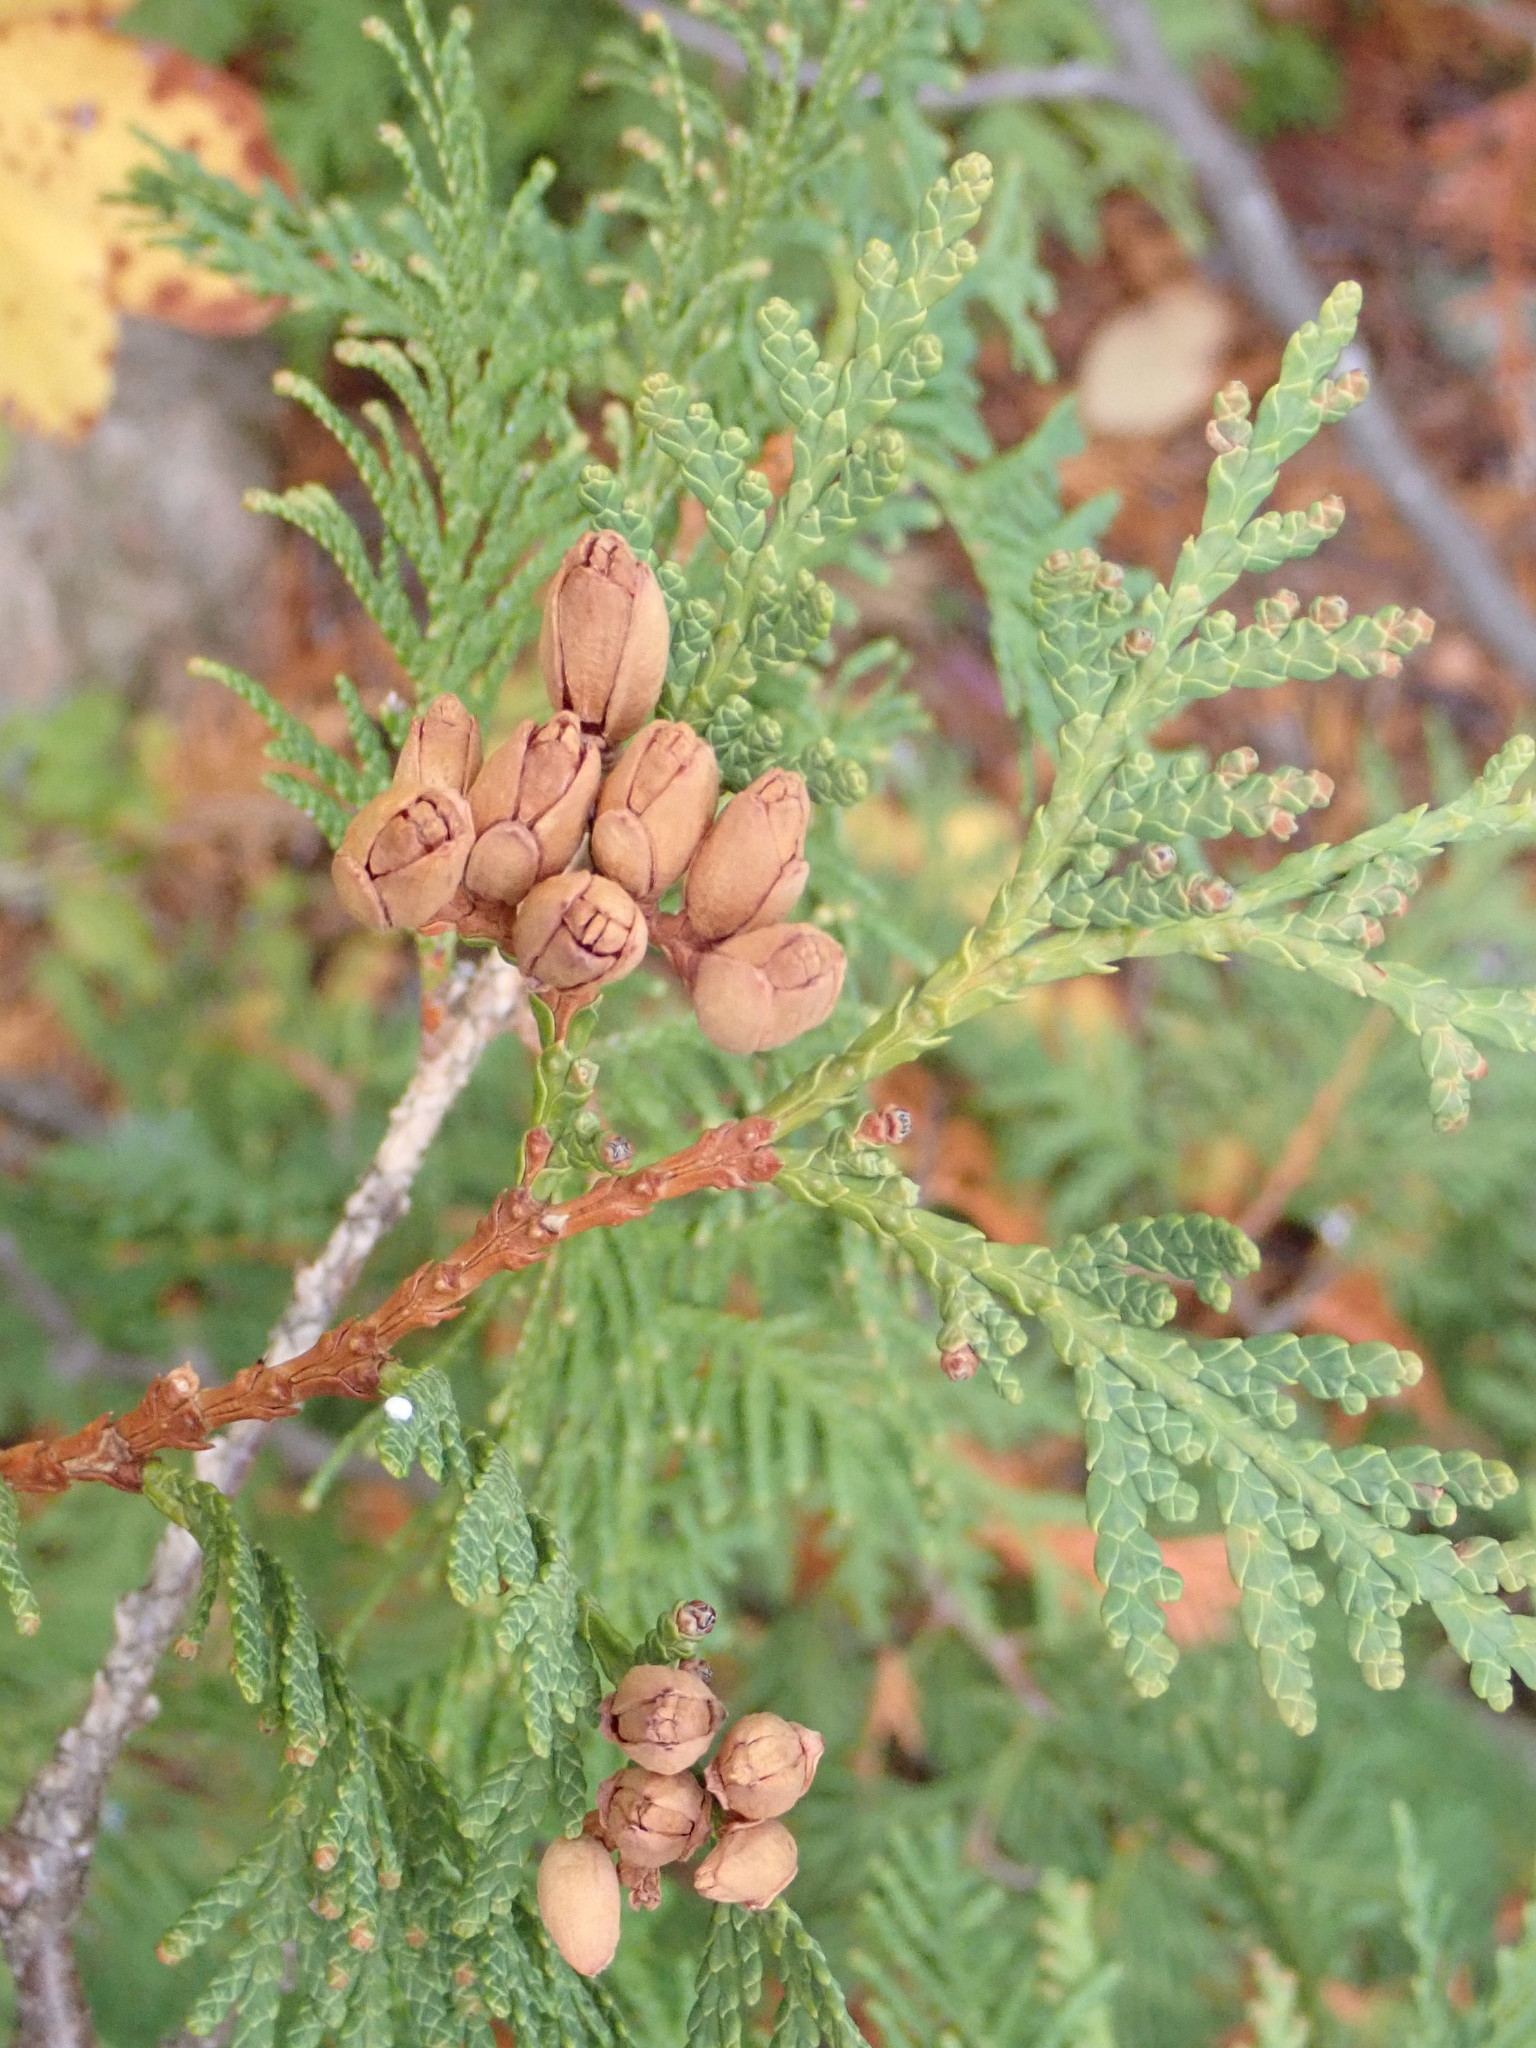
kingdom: Plantae
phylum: Tracheophyta
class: Pinopsida
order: Pinales
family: Cupressaceae
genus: Thuja
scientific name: Thuja occidentalis
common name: Northern white-cedar
